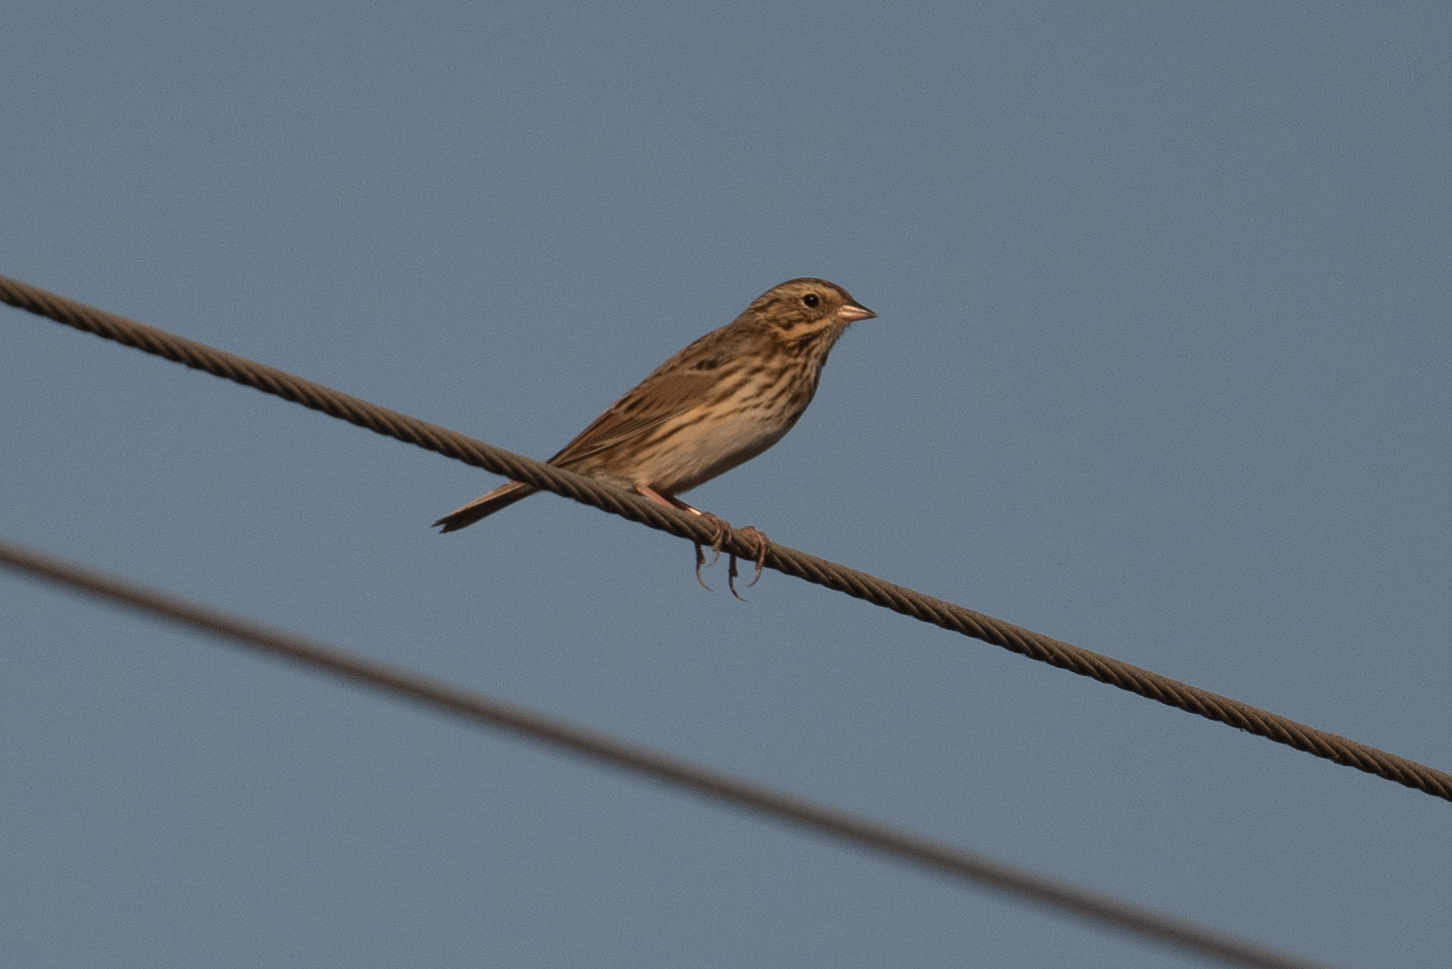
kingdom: Animalia
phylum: Chordata
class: Aves
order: Passeriformes
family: Passerellidae
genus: Passerculus
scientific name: Passerculus sandwichensis
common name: Savannah sparrow
